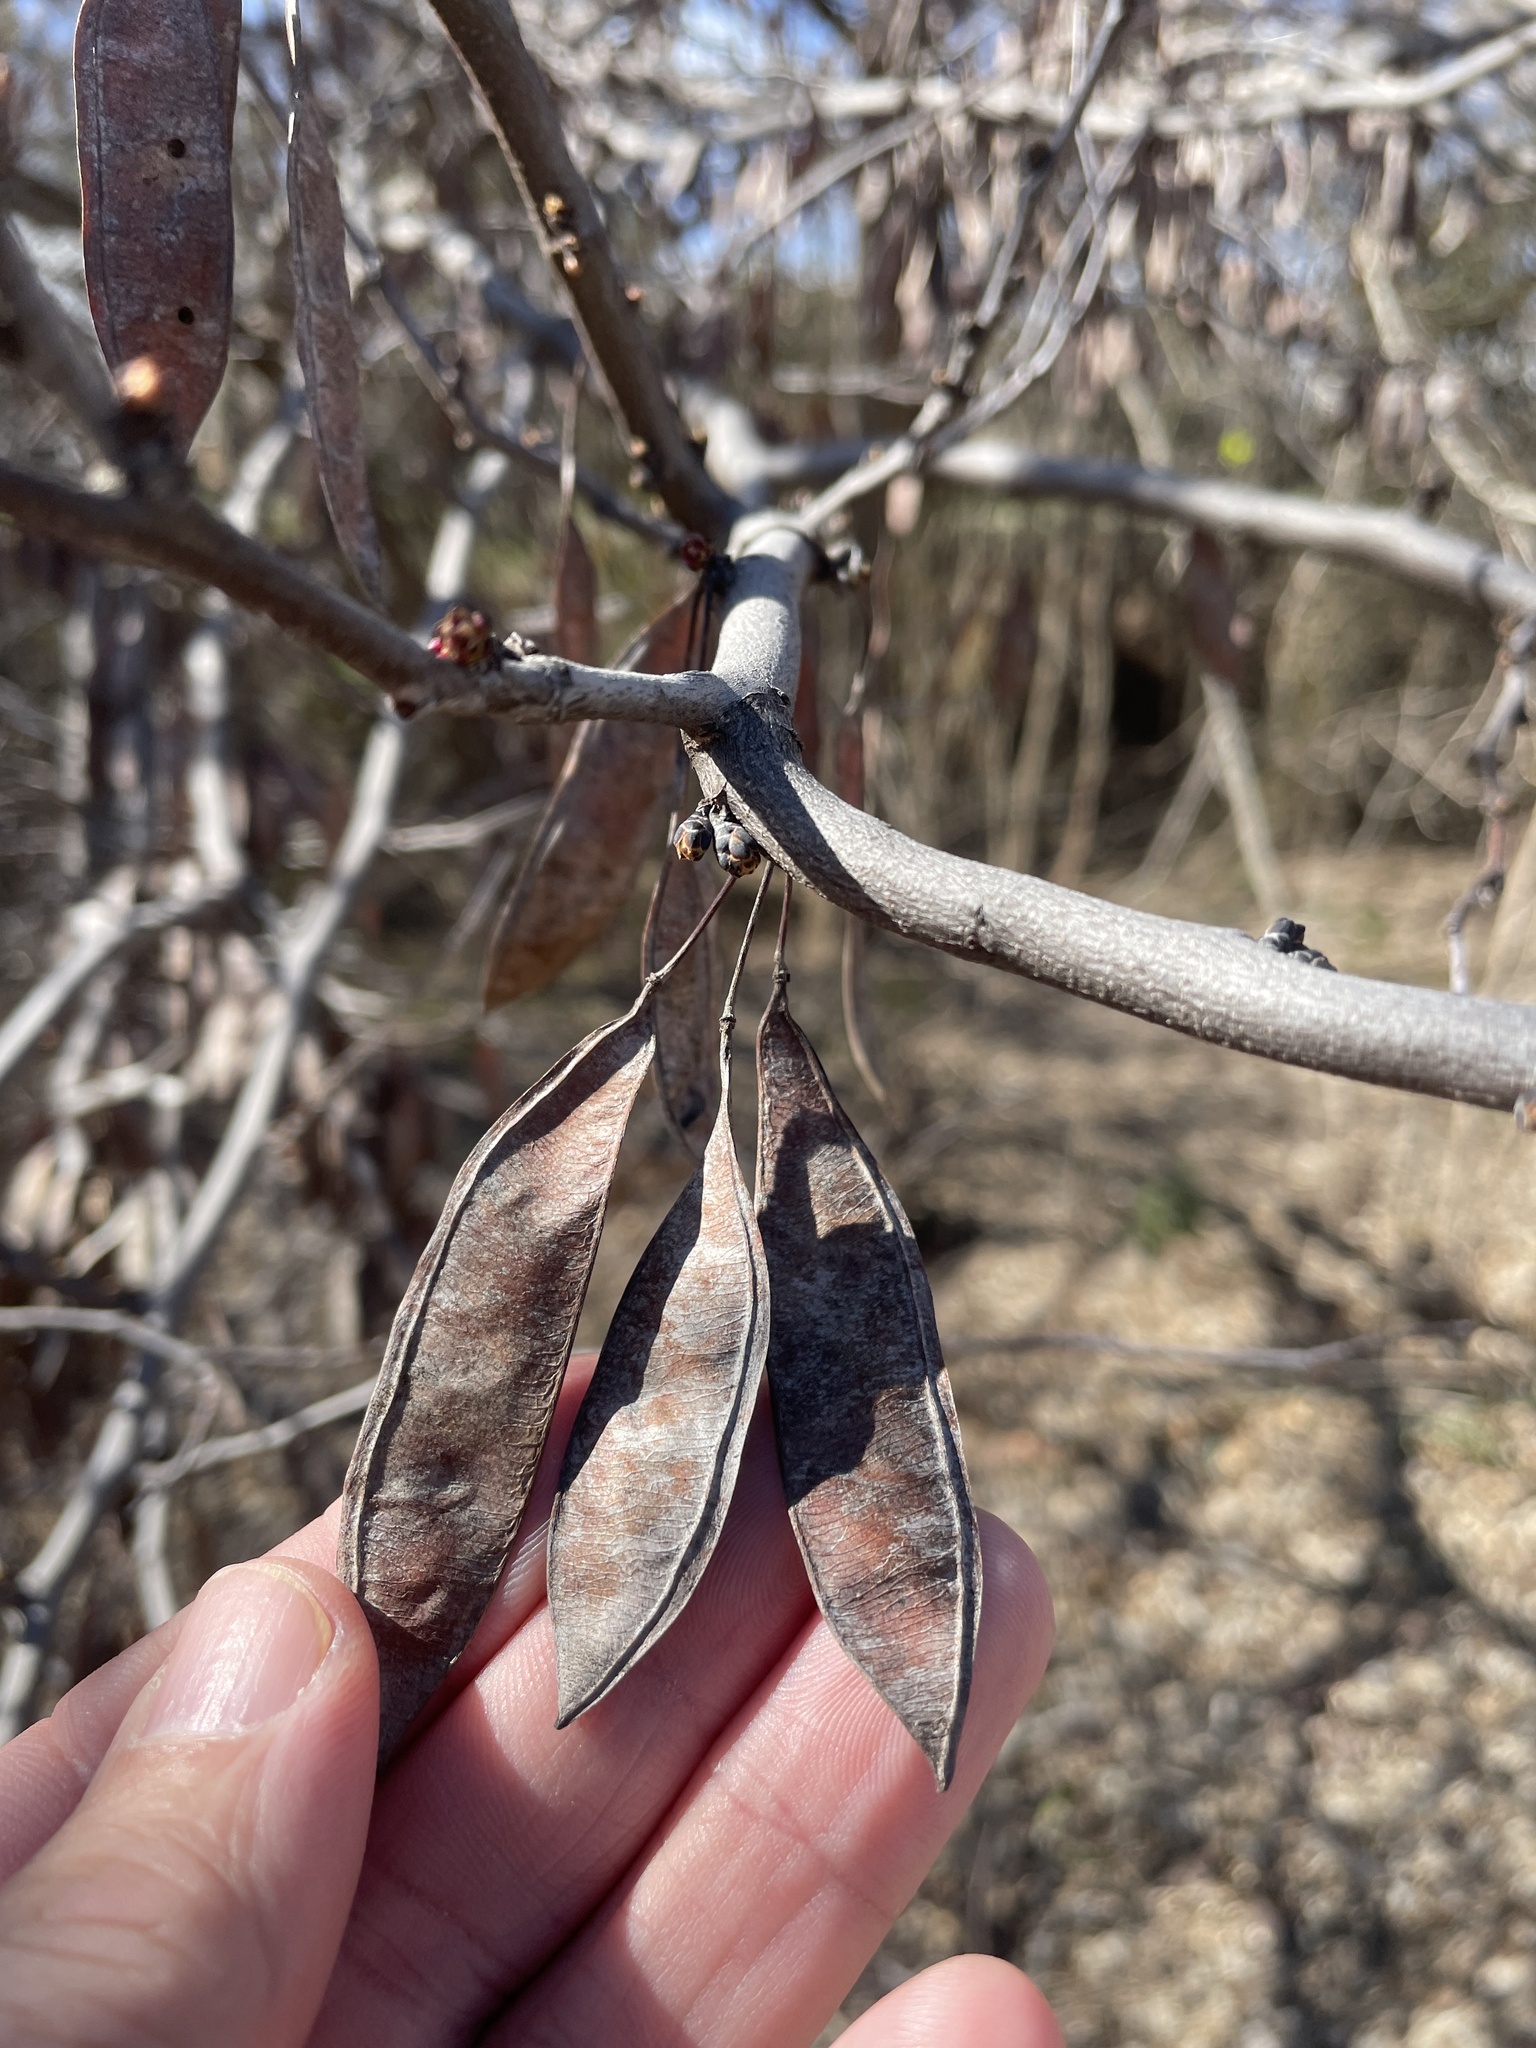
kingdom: Plantae
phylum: Tracheophyta
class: Magnoliopsida
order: Fabales
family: Fabaceae
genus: Cercis
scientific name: Cercis canadensis
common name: Eastern redbud
